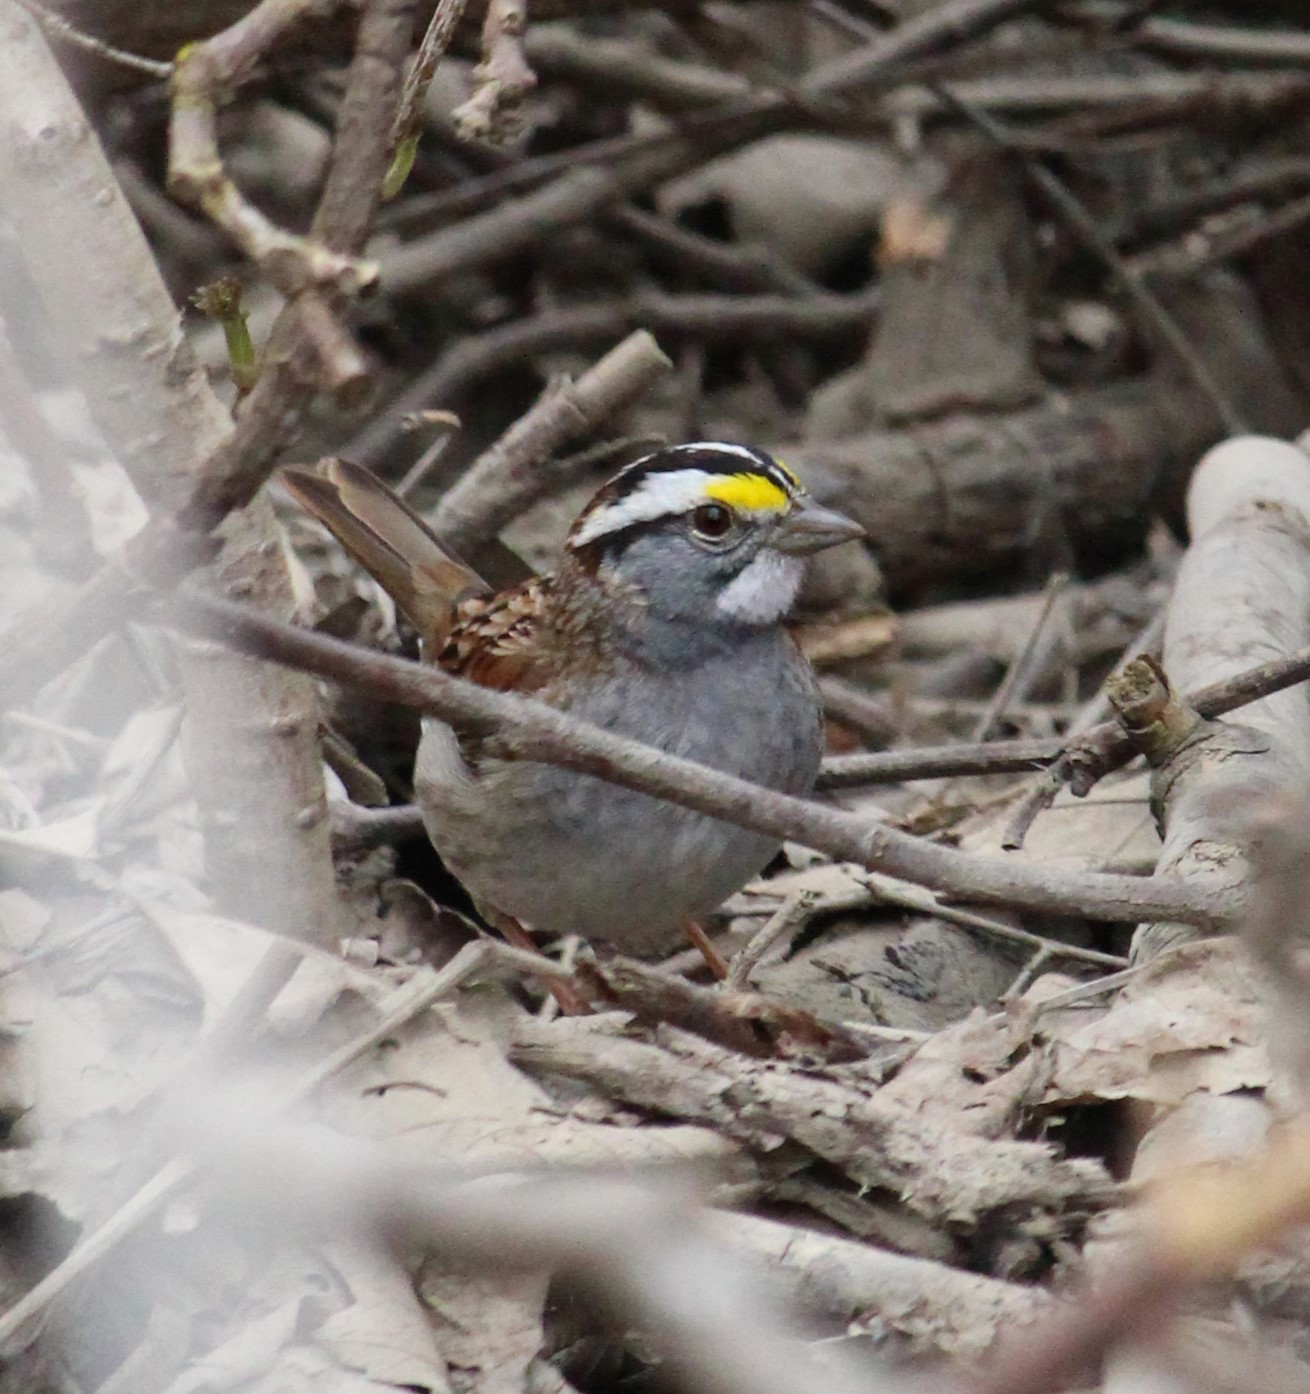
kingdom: Animalia
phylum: Chordata
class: Aves
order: Passeriformes
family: Passerellidae
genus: Zonotrichia
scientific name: Zonotrichia albicollis
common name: White-throated sparrow
